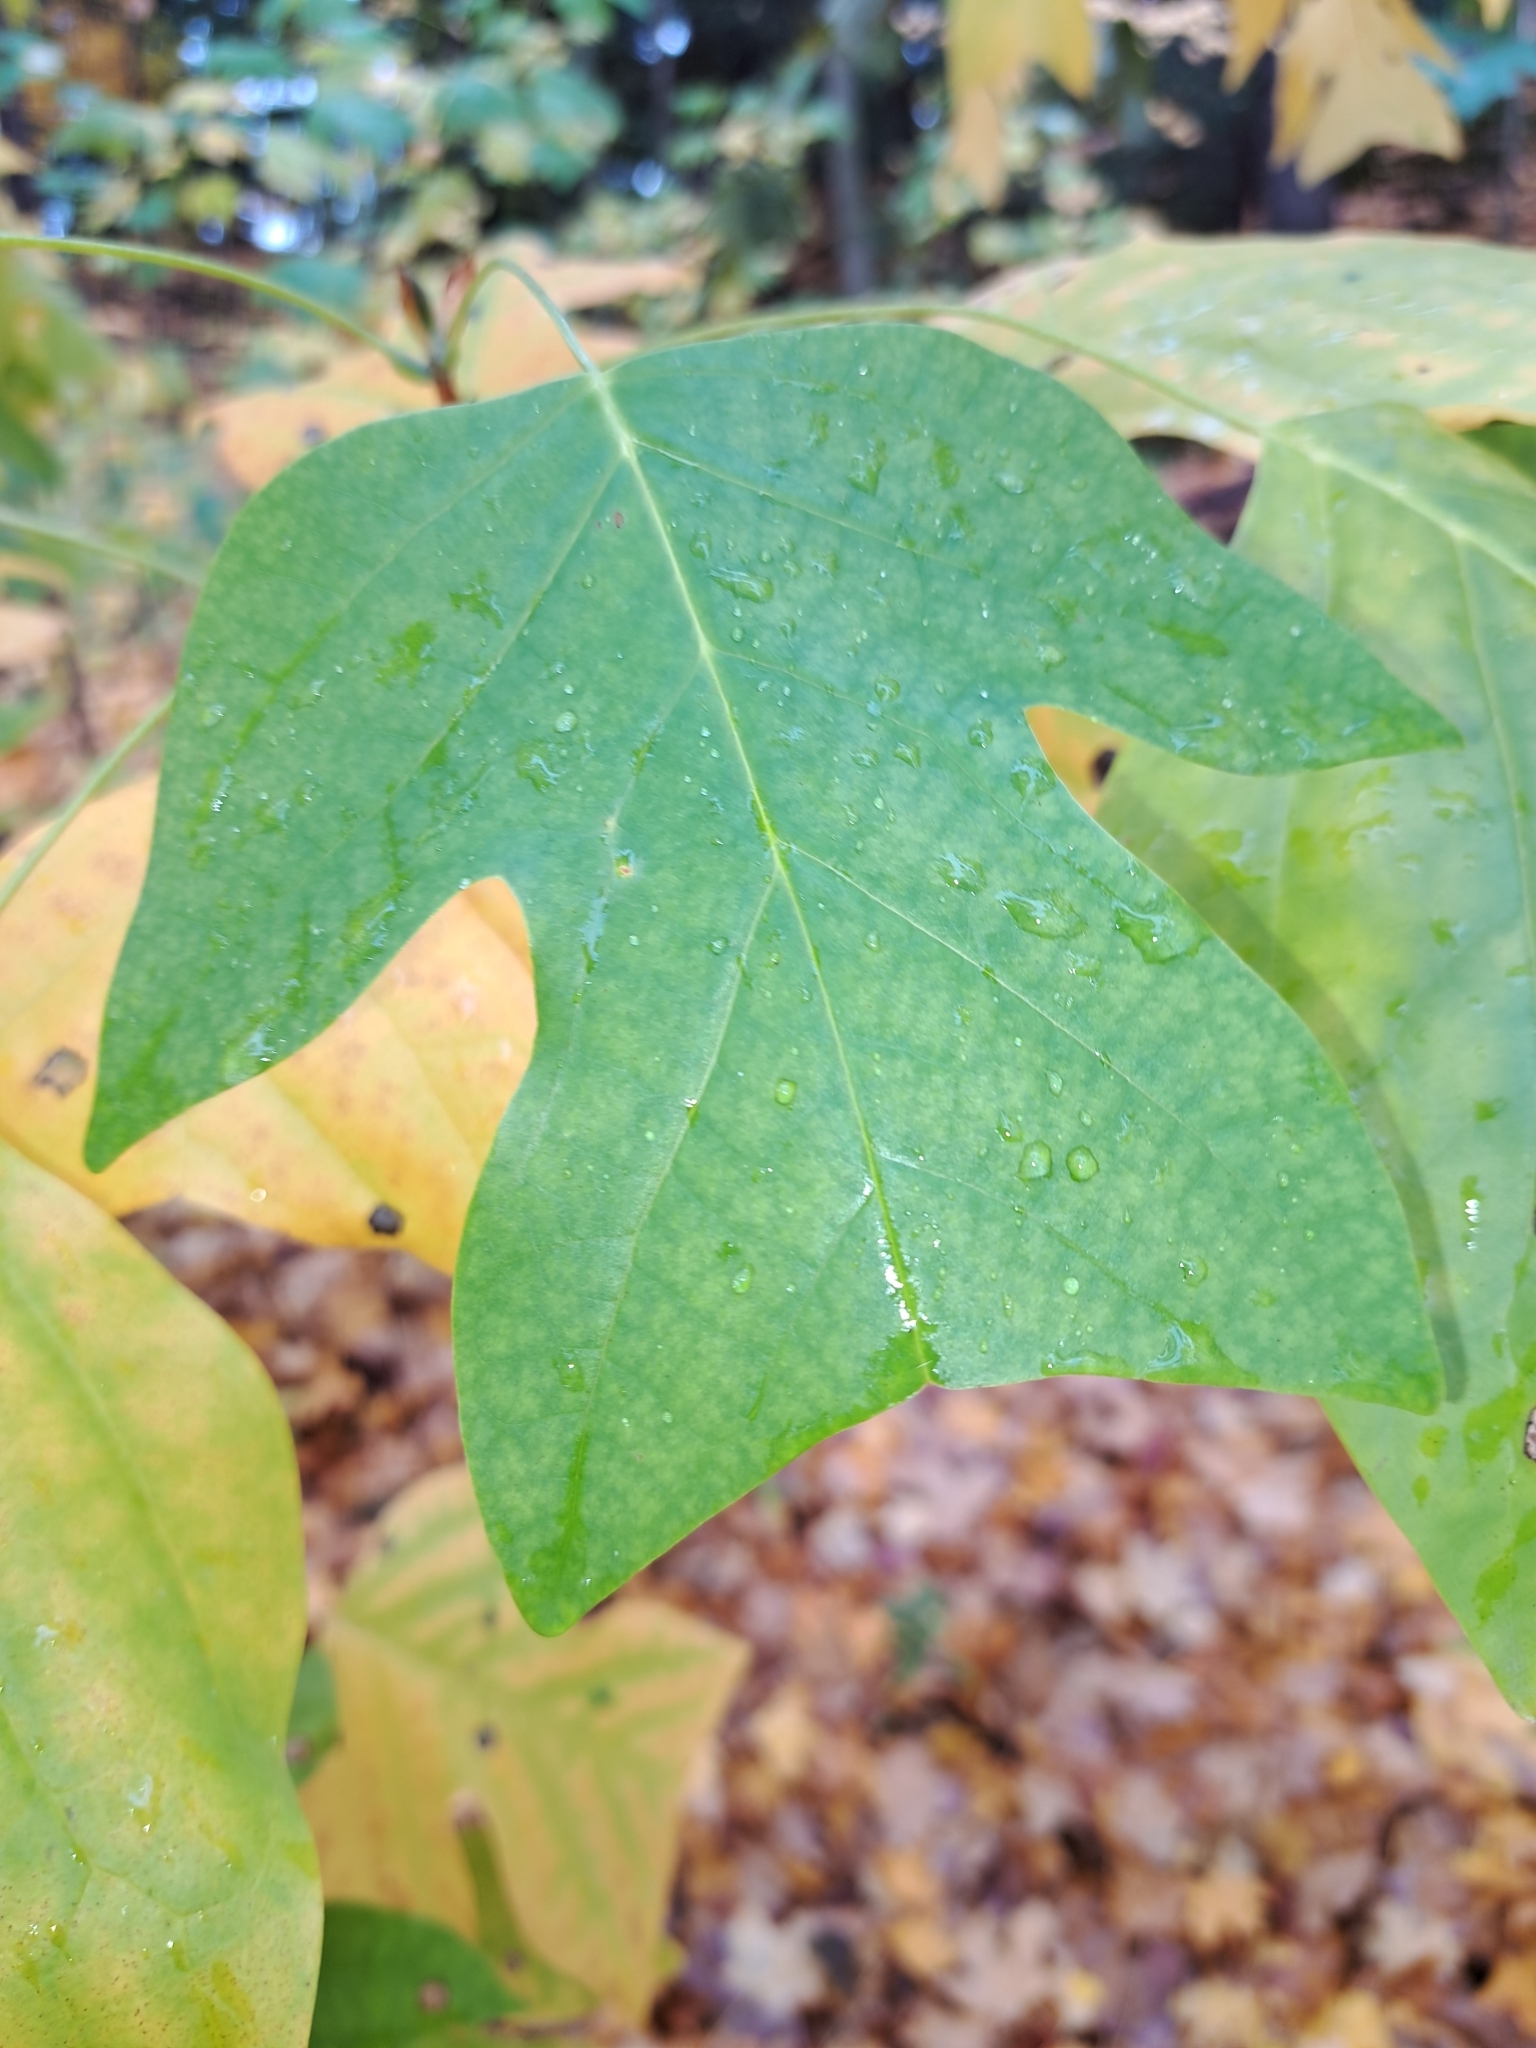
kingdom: Plantae
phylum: Tracheophyta
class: Magnoliopsida
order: Magnoliales
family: Magnoliaceae
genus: Liriodendron
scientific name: Liriodendron tulipifera
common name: Tulip tree
